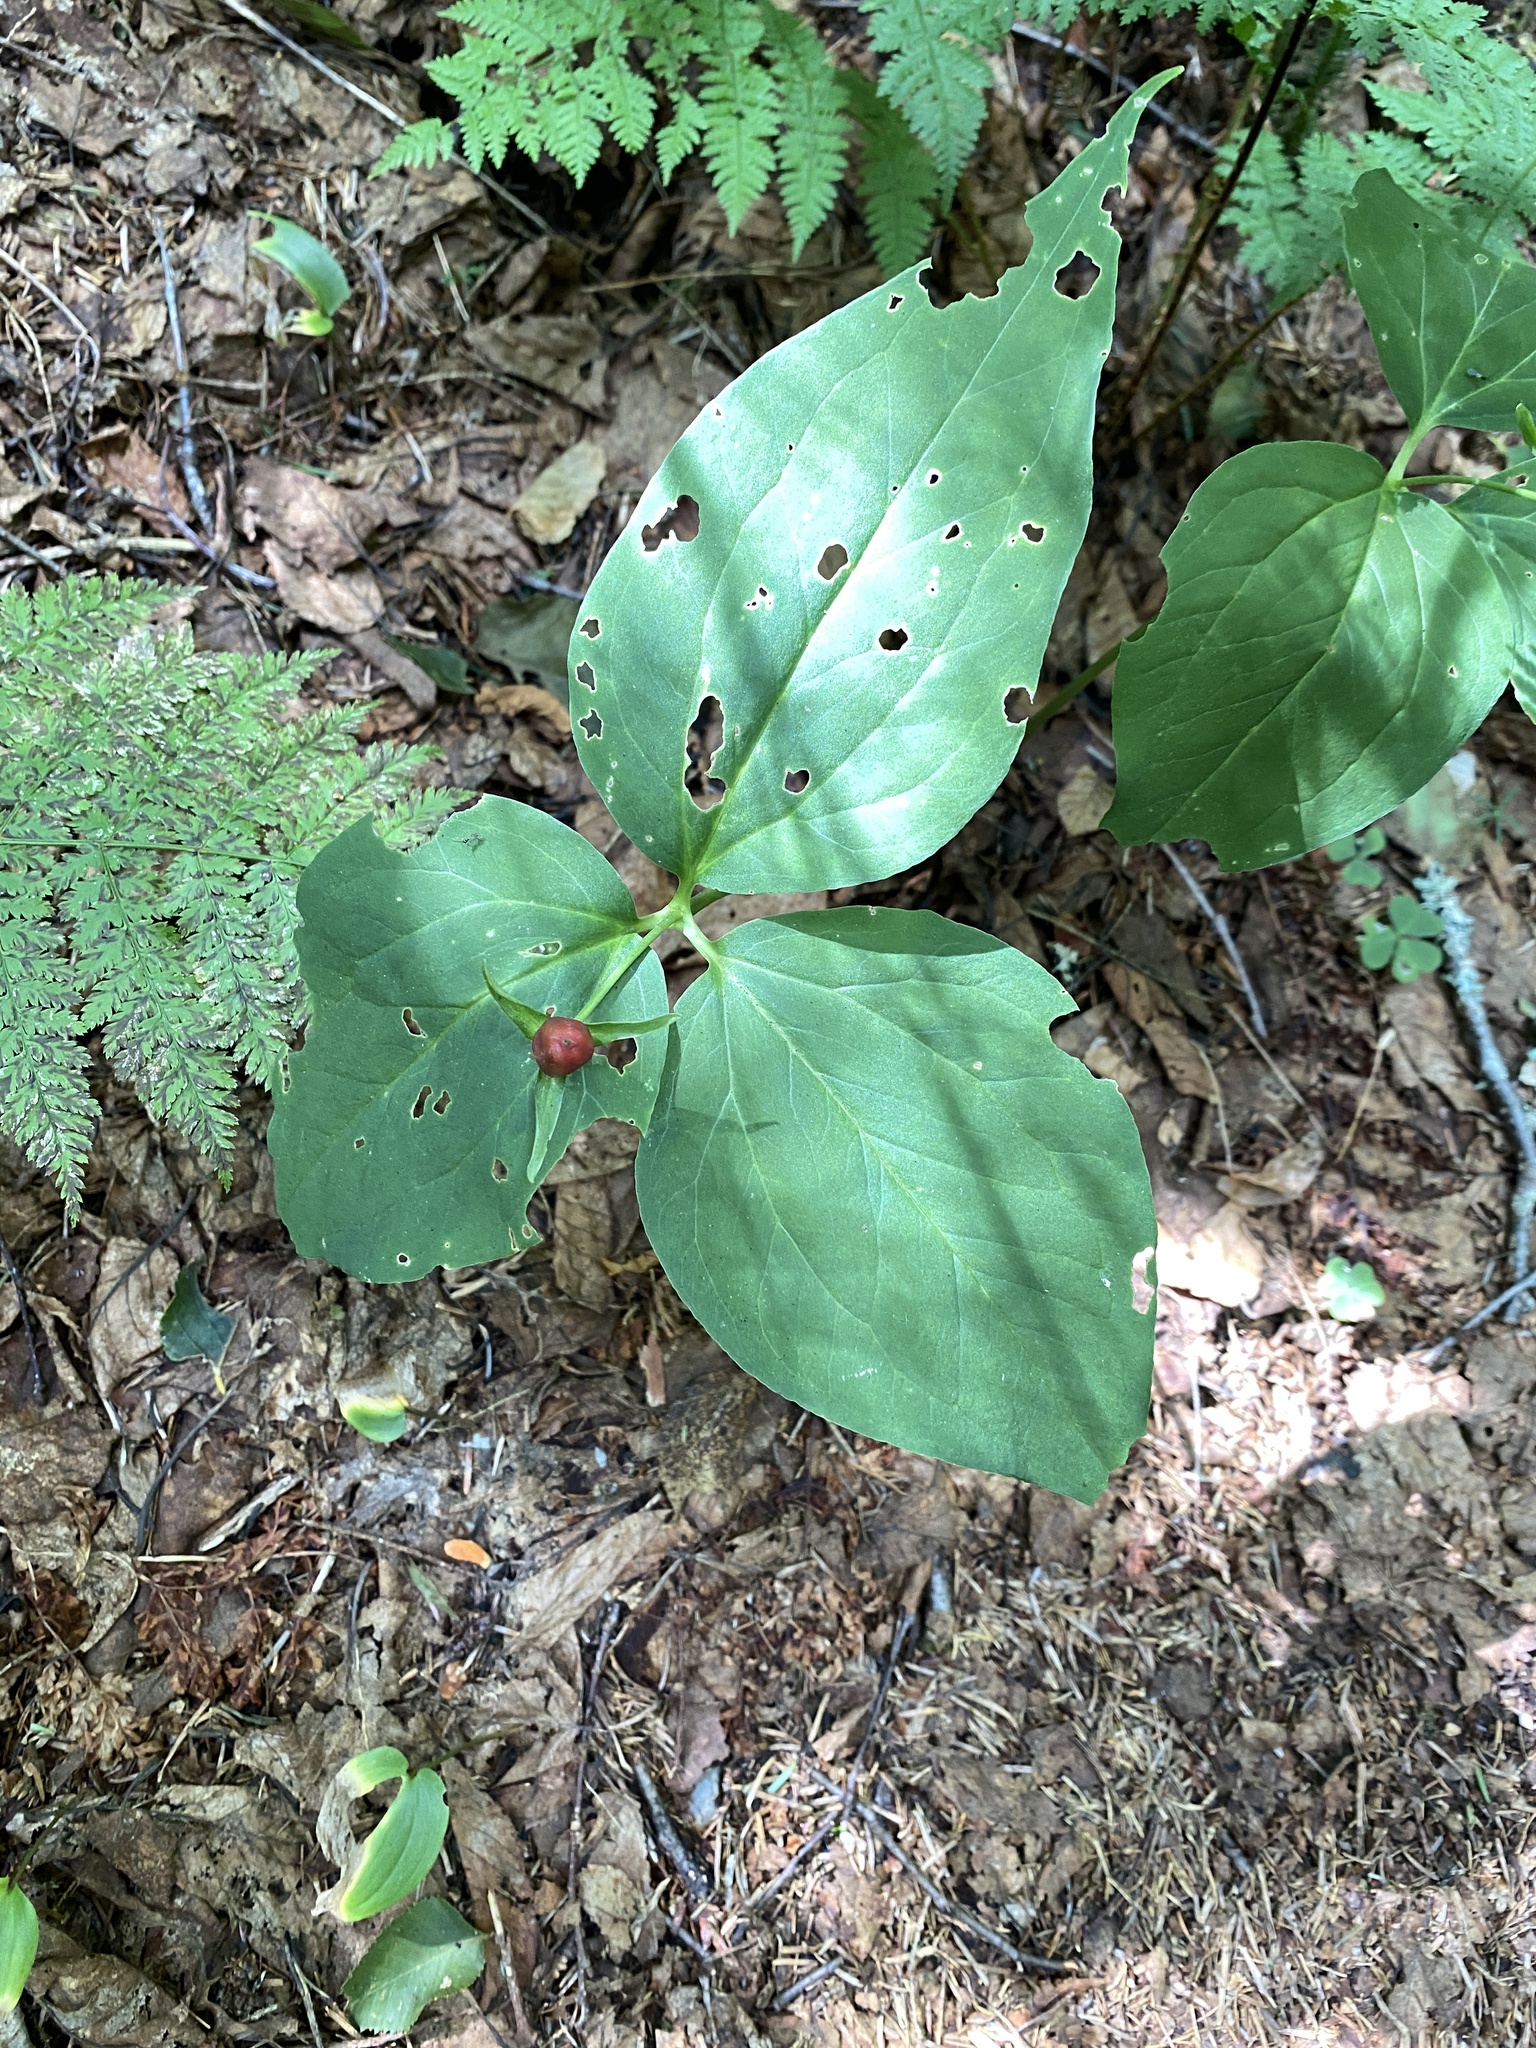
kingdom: Plantae
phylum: Tracheophyta
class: Liliopsida
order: Liliales
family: Melanthiaceae
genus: Trillium
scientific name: Trillium undulatum
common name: Paint trillium
